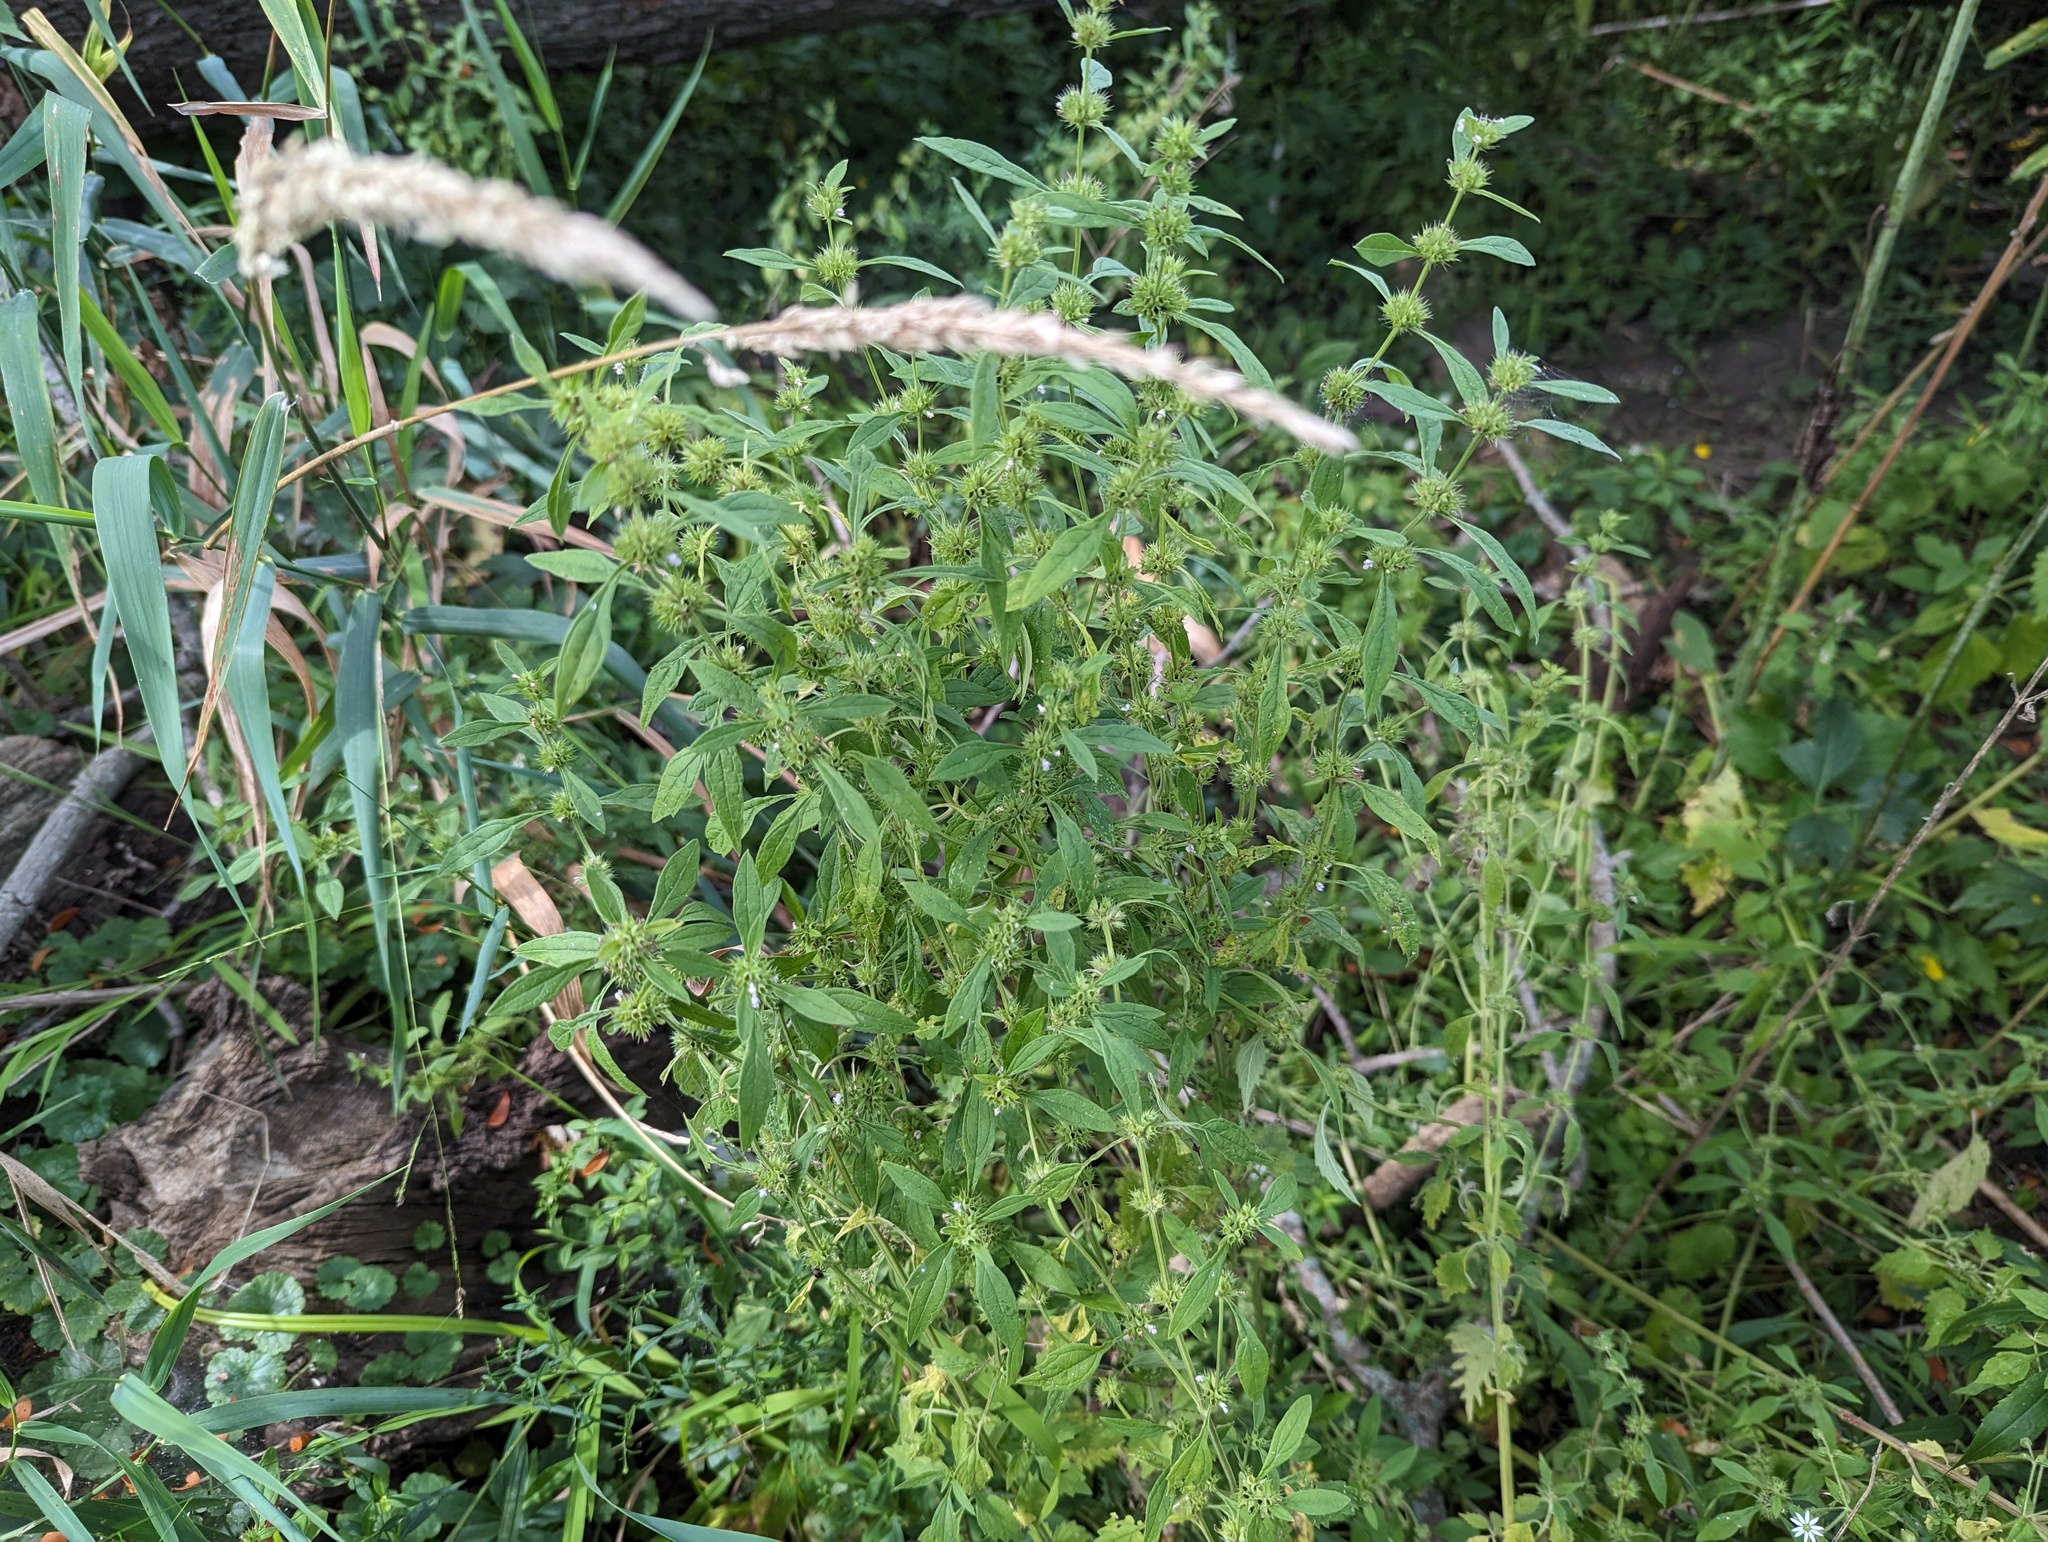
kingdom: Plantae
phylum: Tracheophyta
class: Magnoliopsida
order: Lamiales
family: Lamiaceae
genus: Chaiturus
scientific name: Chaiturus marrubiastrum
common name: Lion's tail
